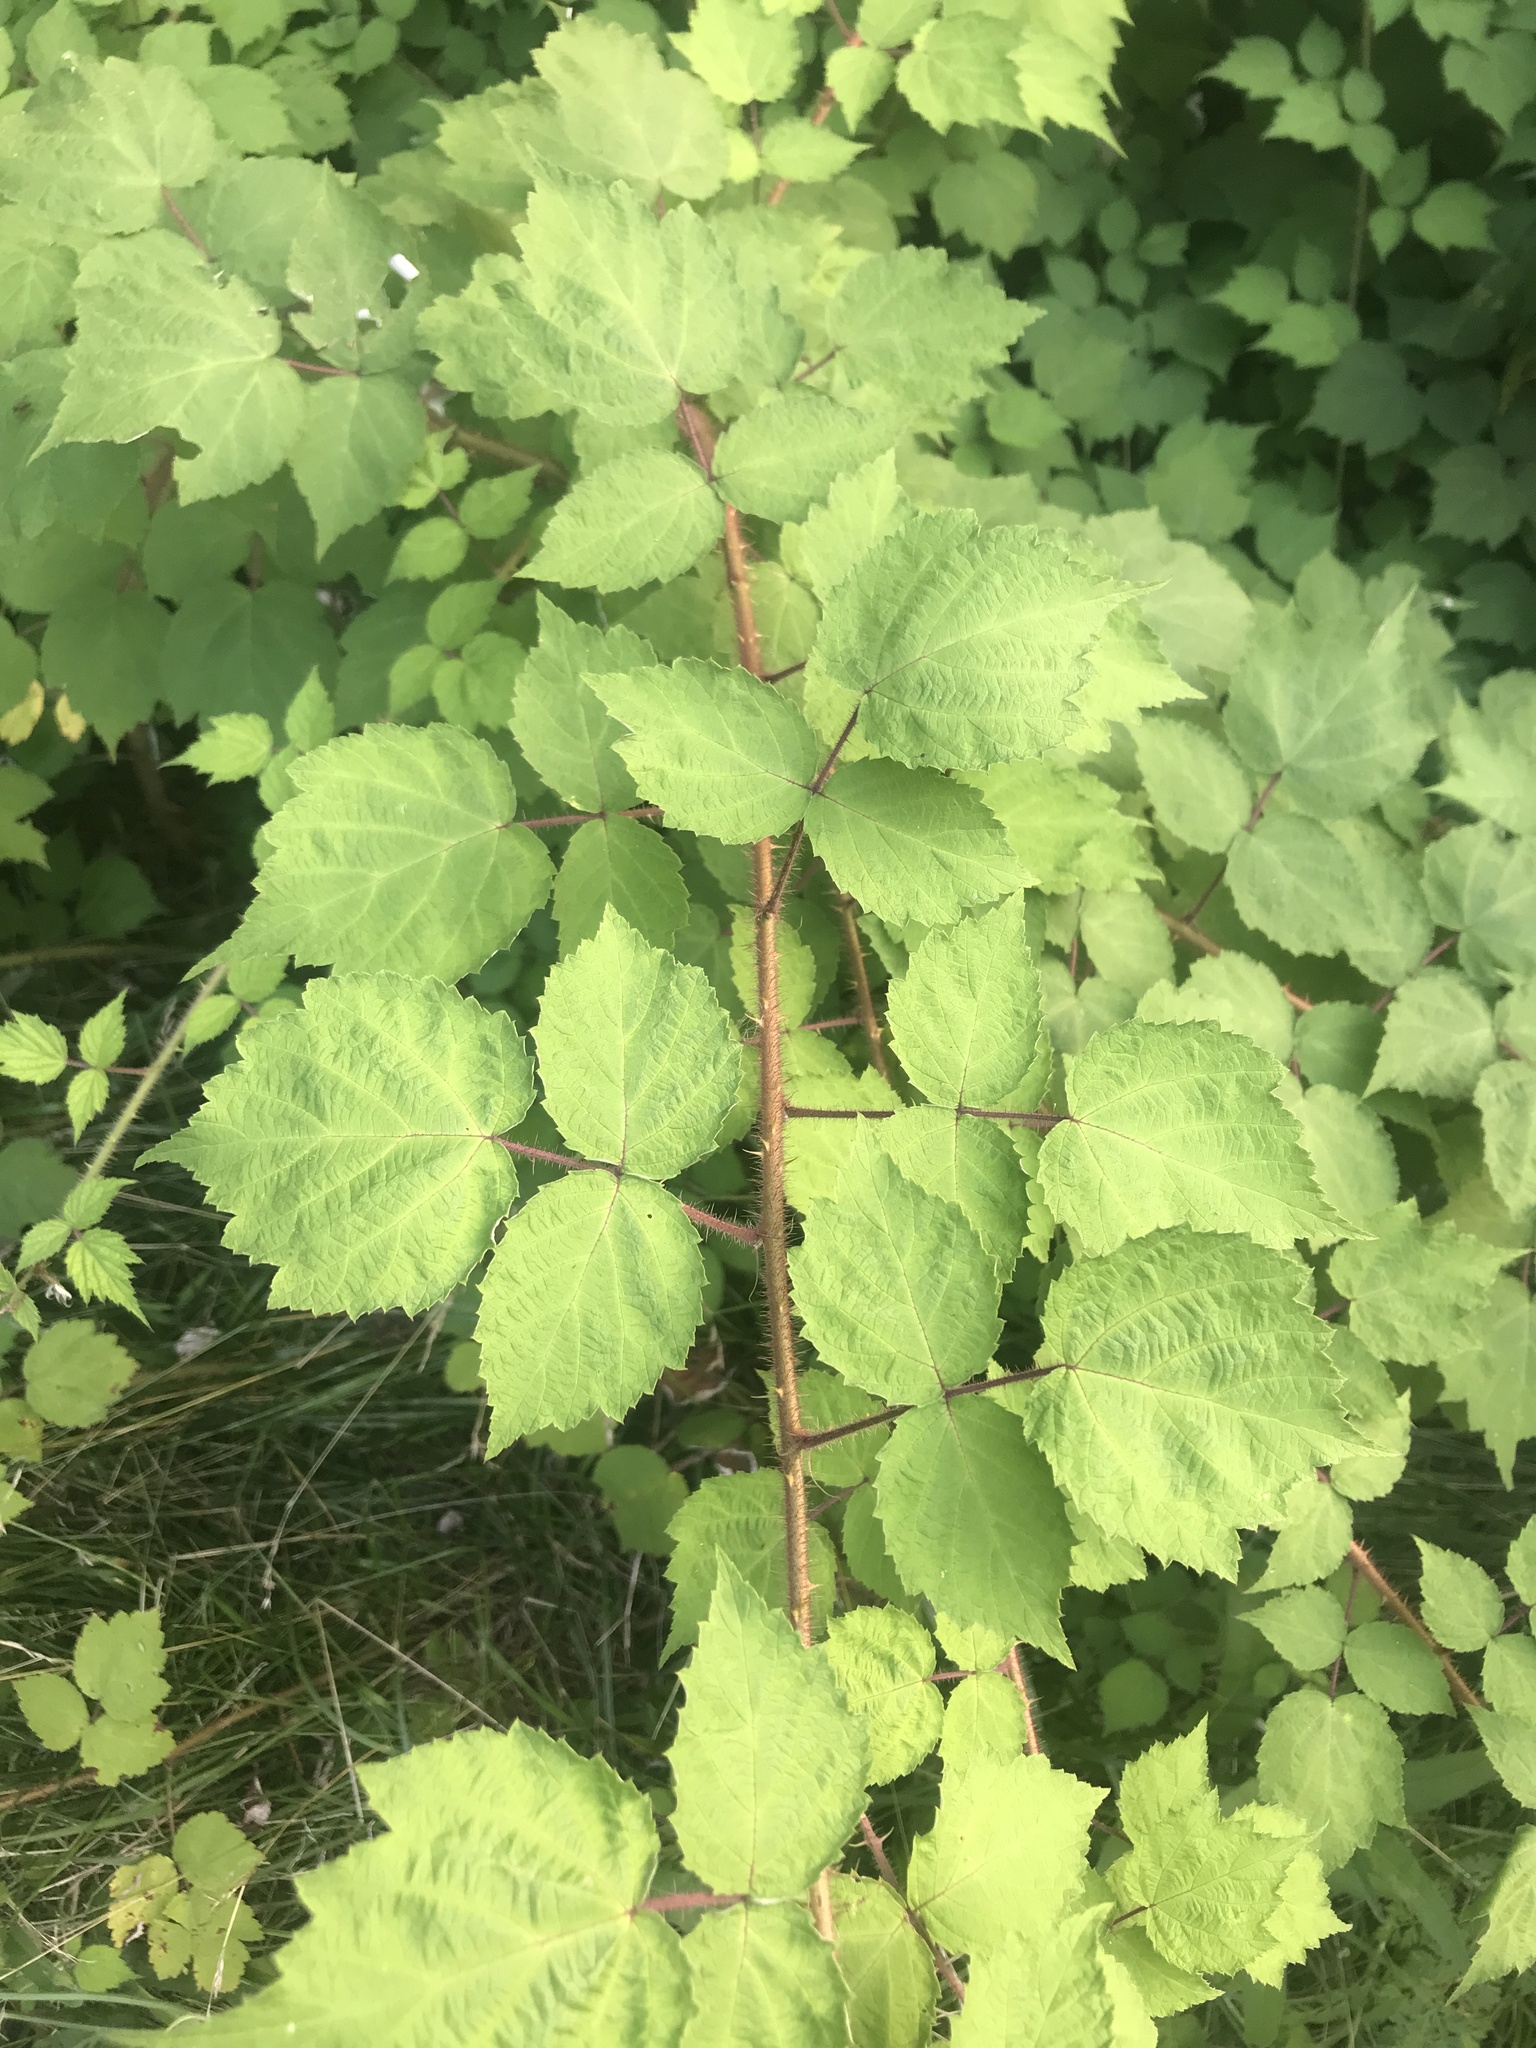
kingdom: Plantae
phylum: Tracheophyta
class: Magnoliopsida
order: Rosales
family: Rosaceae
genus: Rubus
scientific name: Rubus phoenicolasius
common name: Japanese wineberry
